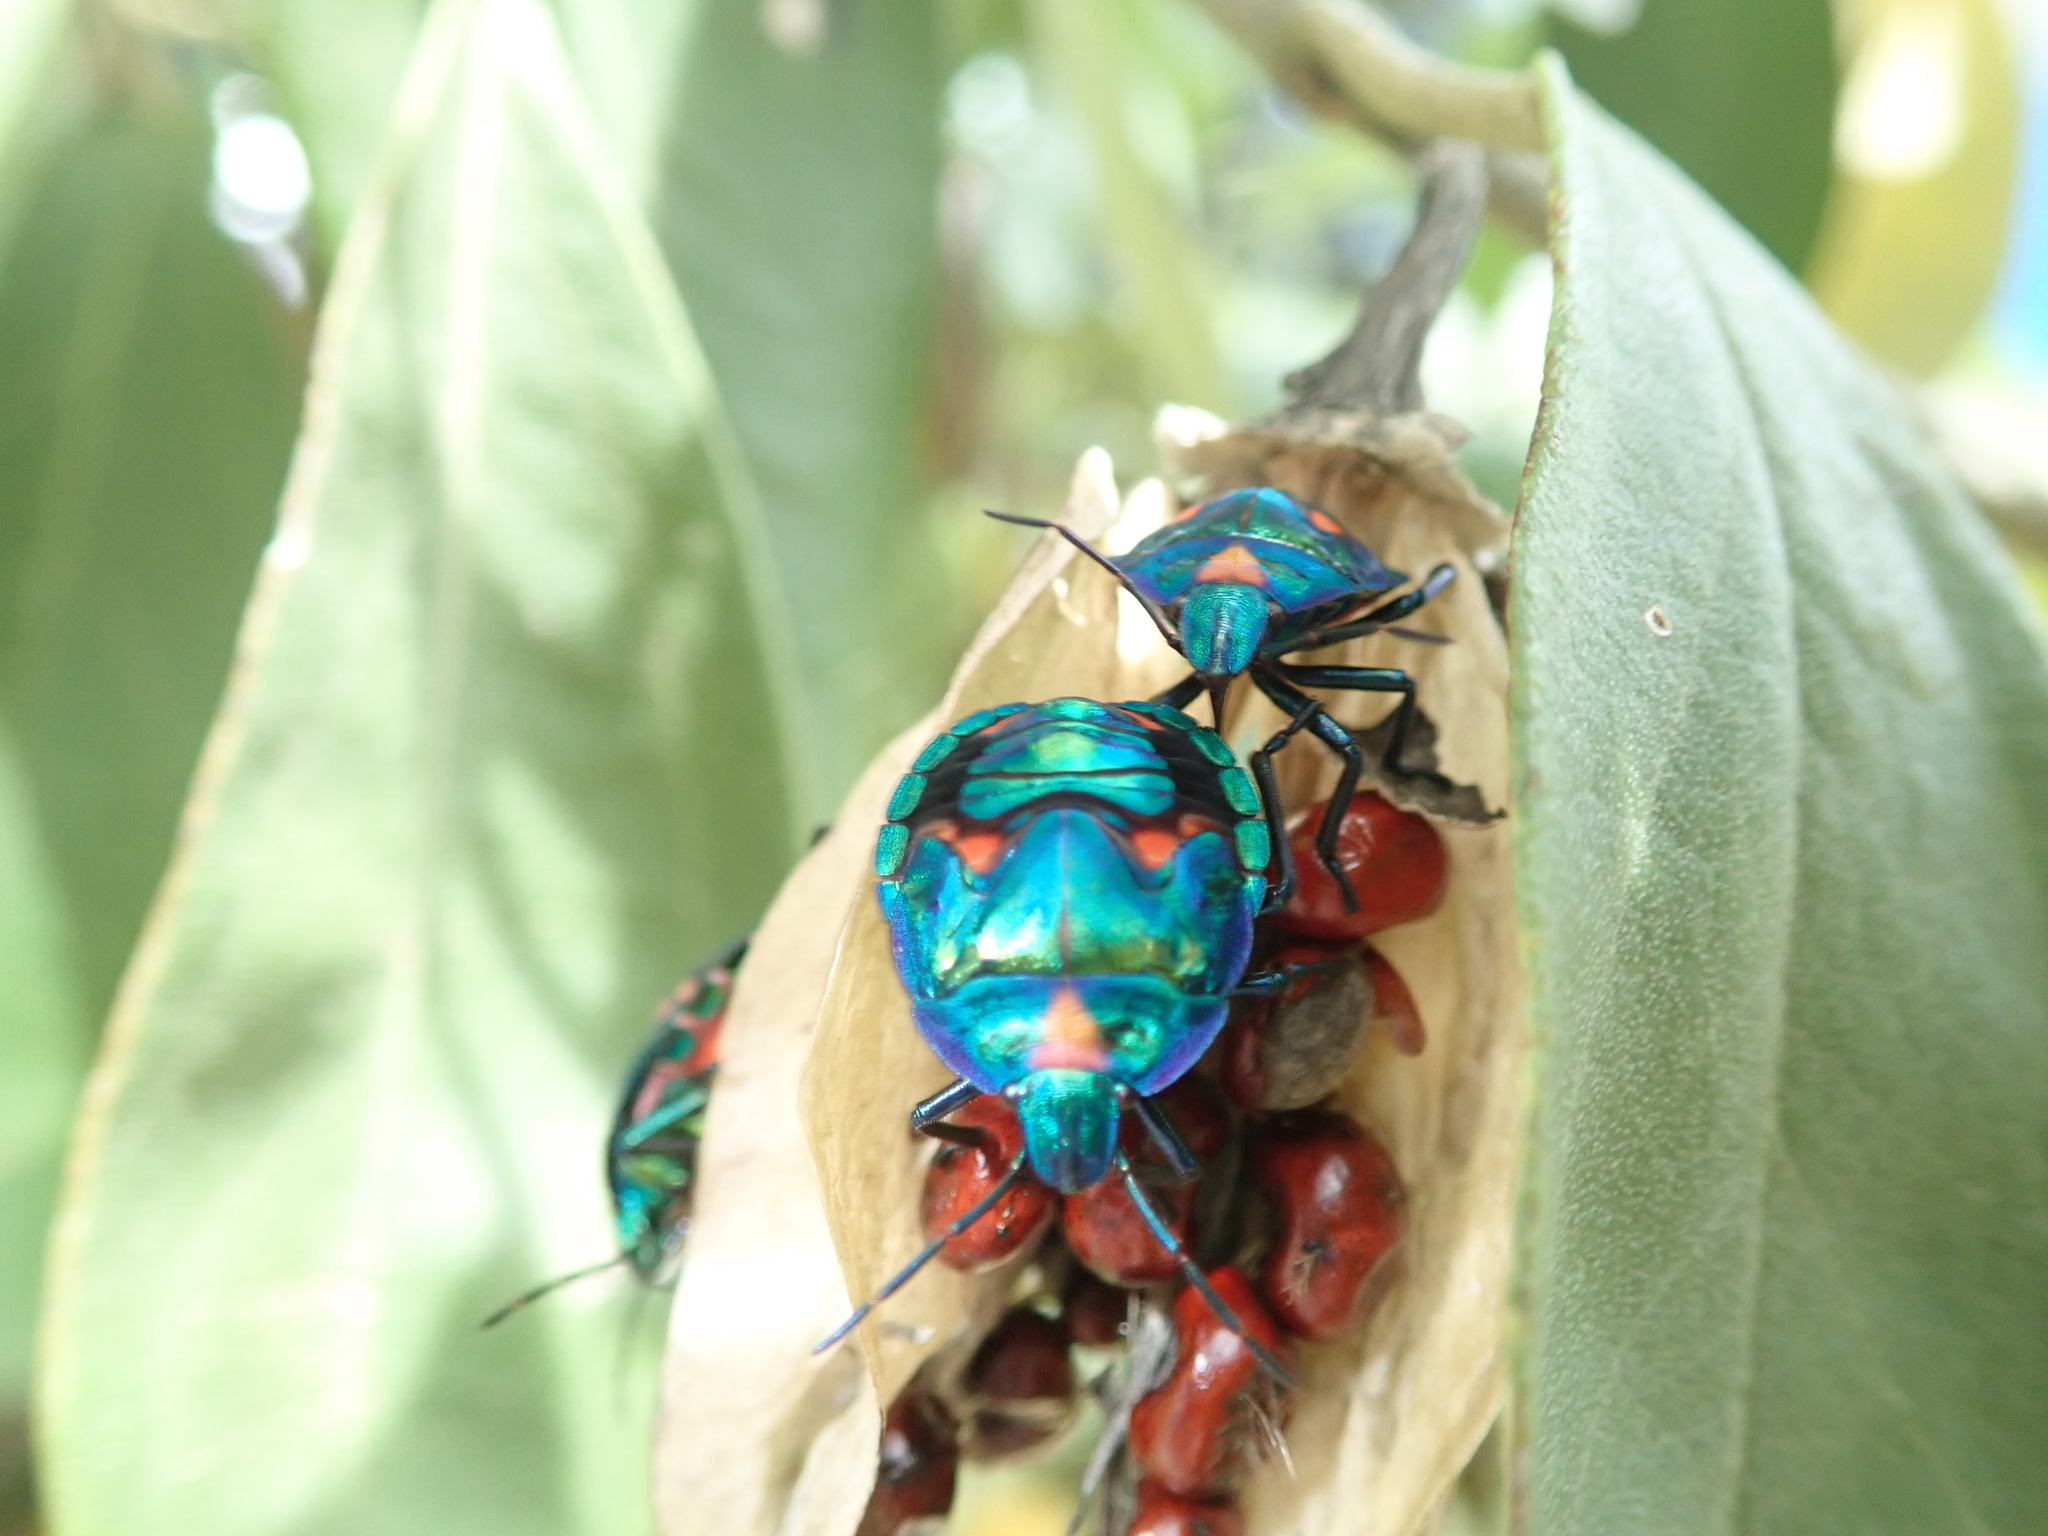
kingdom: Animalia
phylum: Arthropoda
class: Insecta
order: Hemiptera
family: Scutelleridae
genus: Tectocoris
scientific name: Tectocoris diophthalmus
